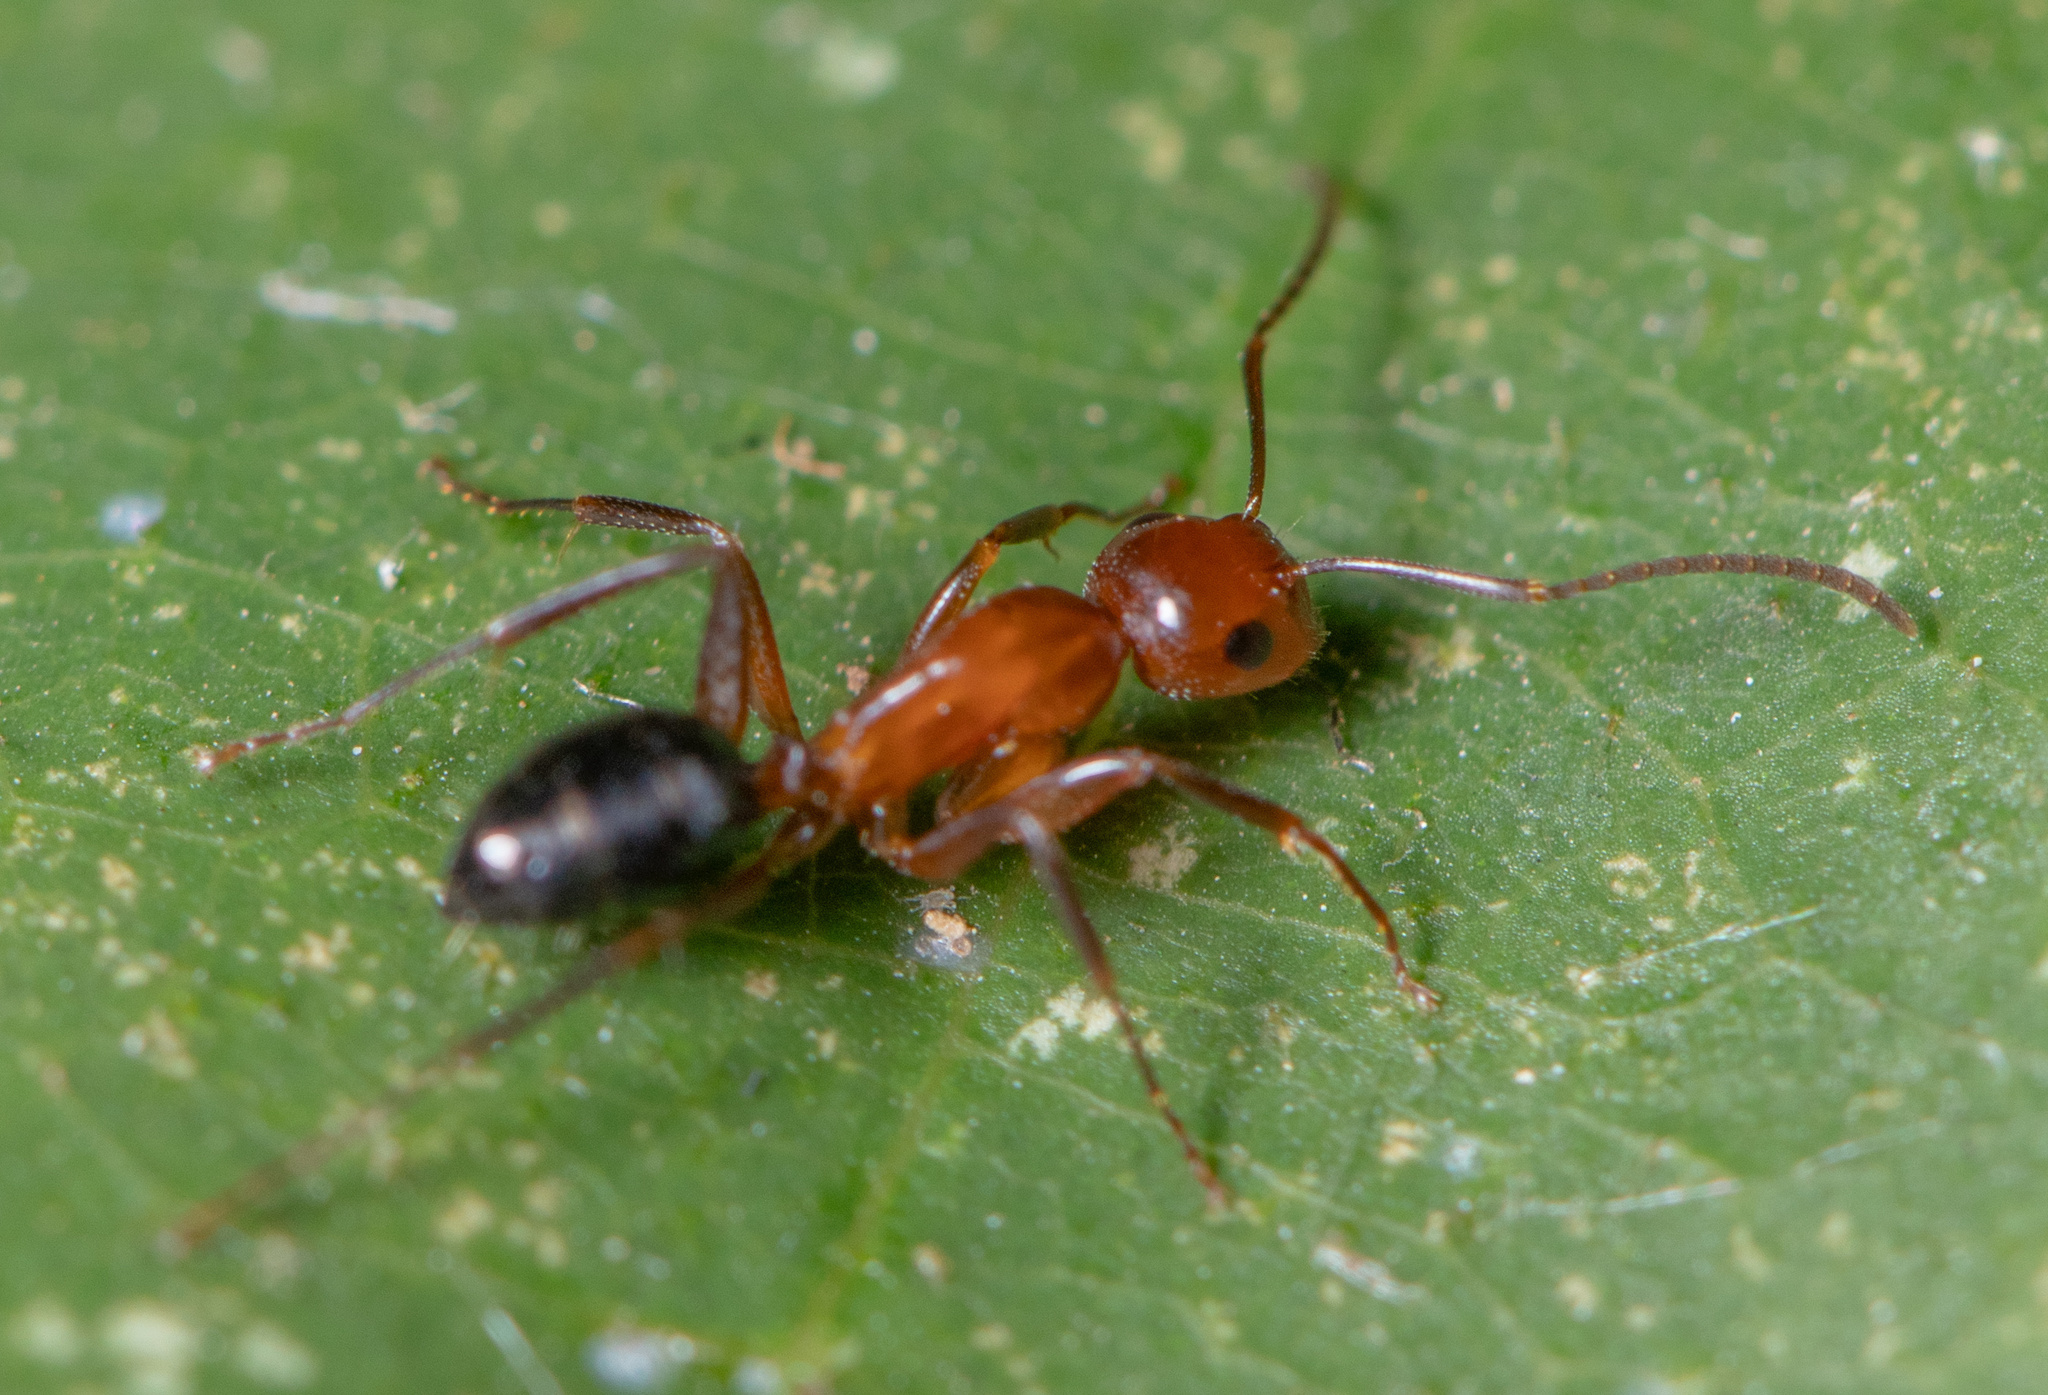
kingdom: Animalia
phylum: Arthropoda
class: Insecta
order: Hymenoptera
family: Formicidae
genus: Camponotus
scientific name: Camponotus discolor
